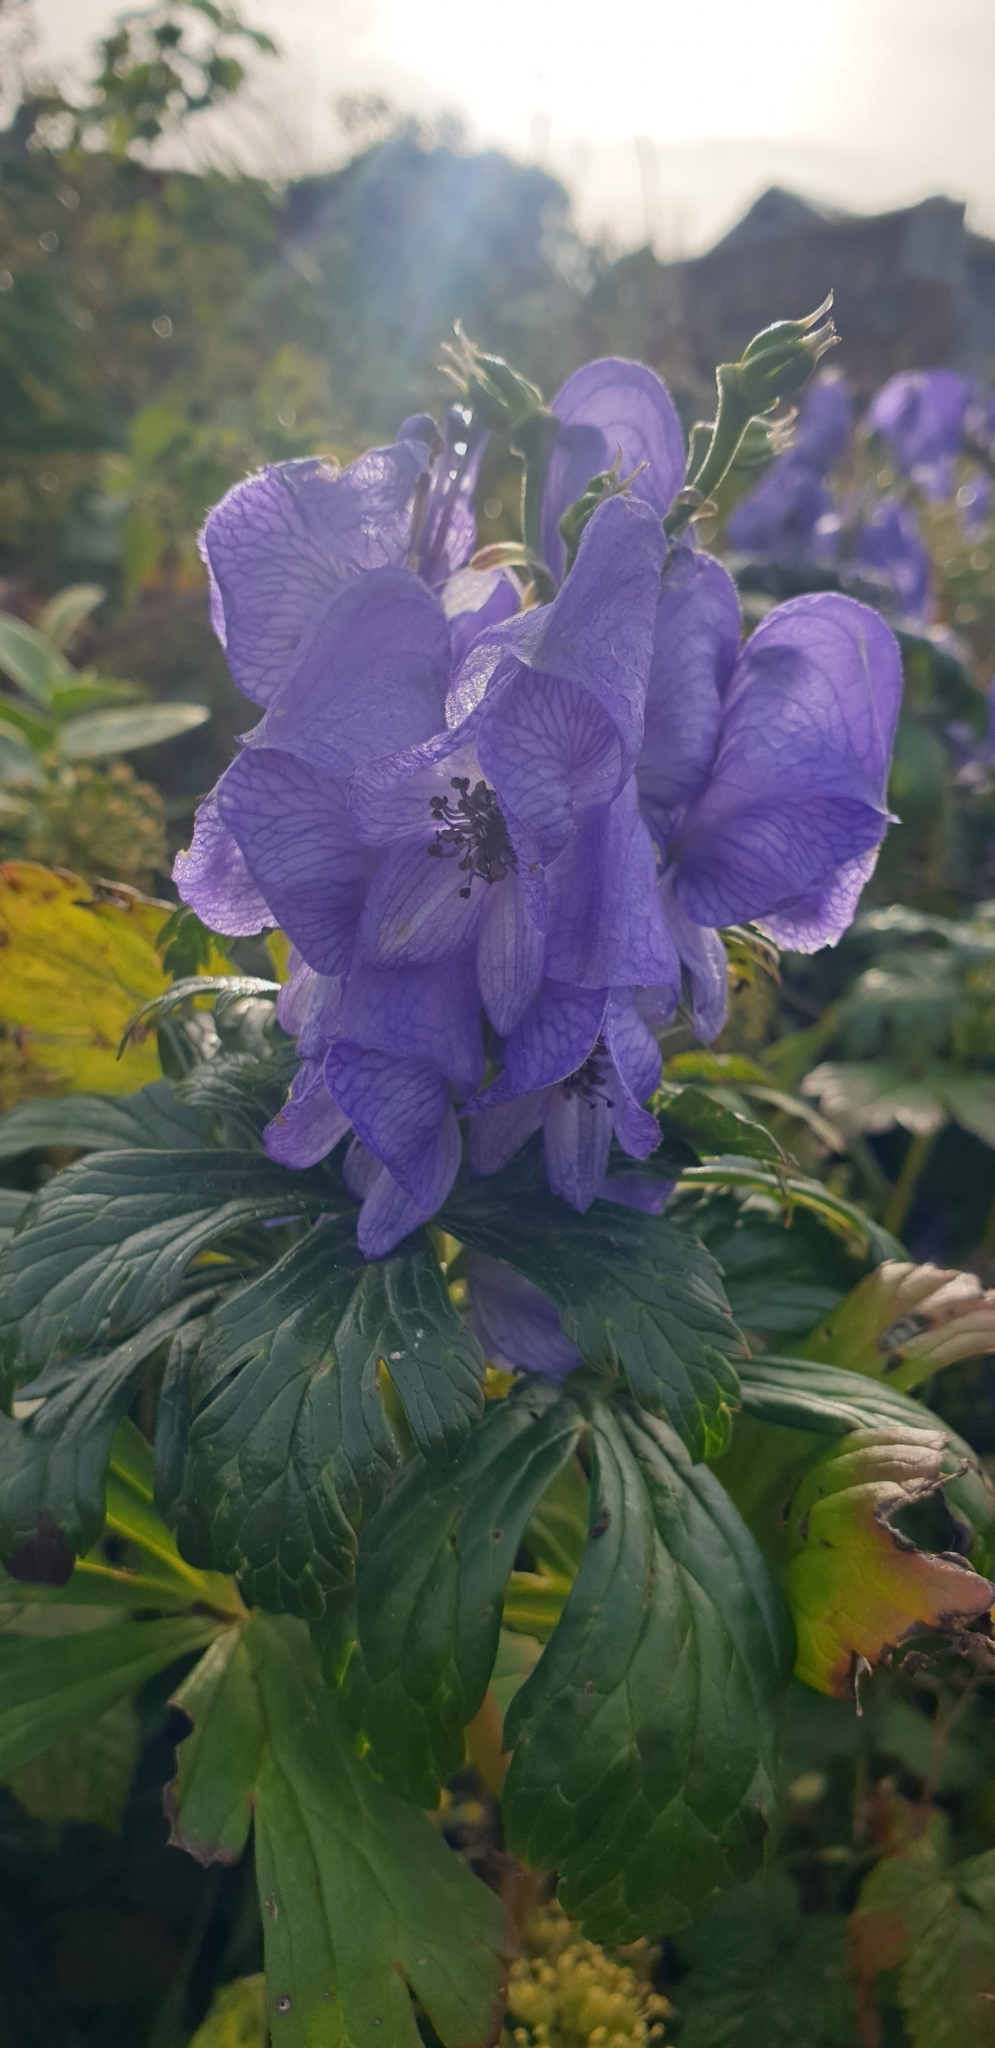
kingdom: Plantae
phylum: Tracheophyta
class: Magnoliopsida
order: Ranunculales
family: Ranunculaceae
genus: Aconitum
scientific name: Aconitum cammarum
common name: Hybrid monk's-hood
